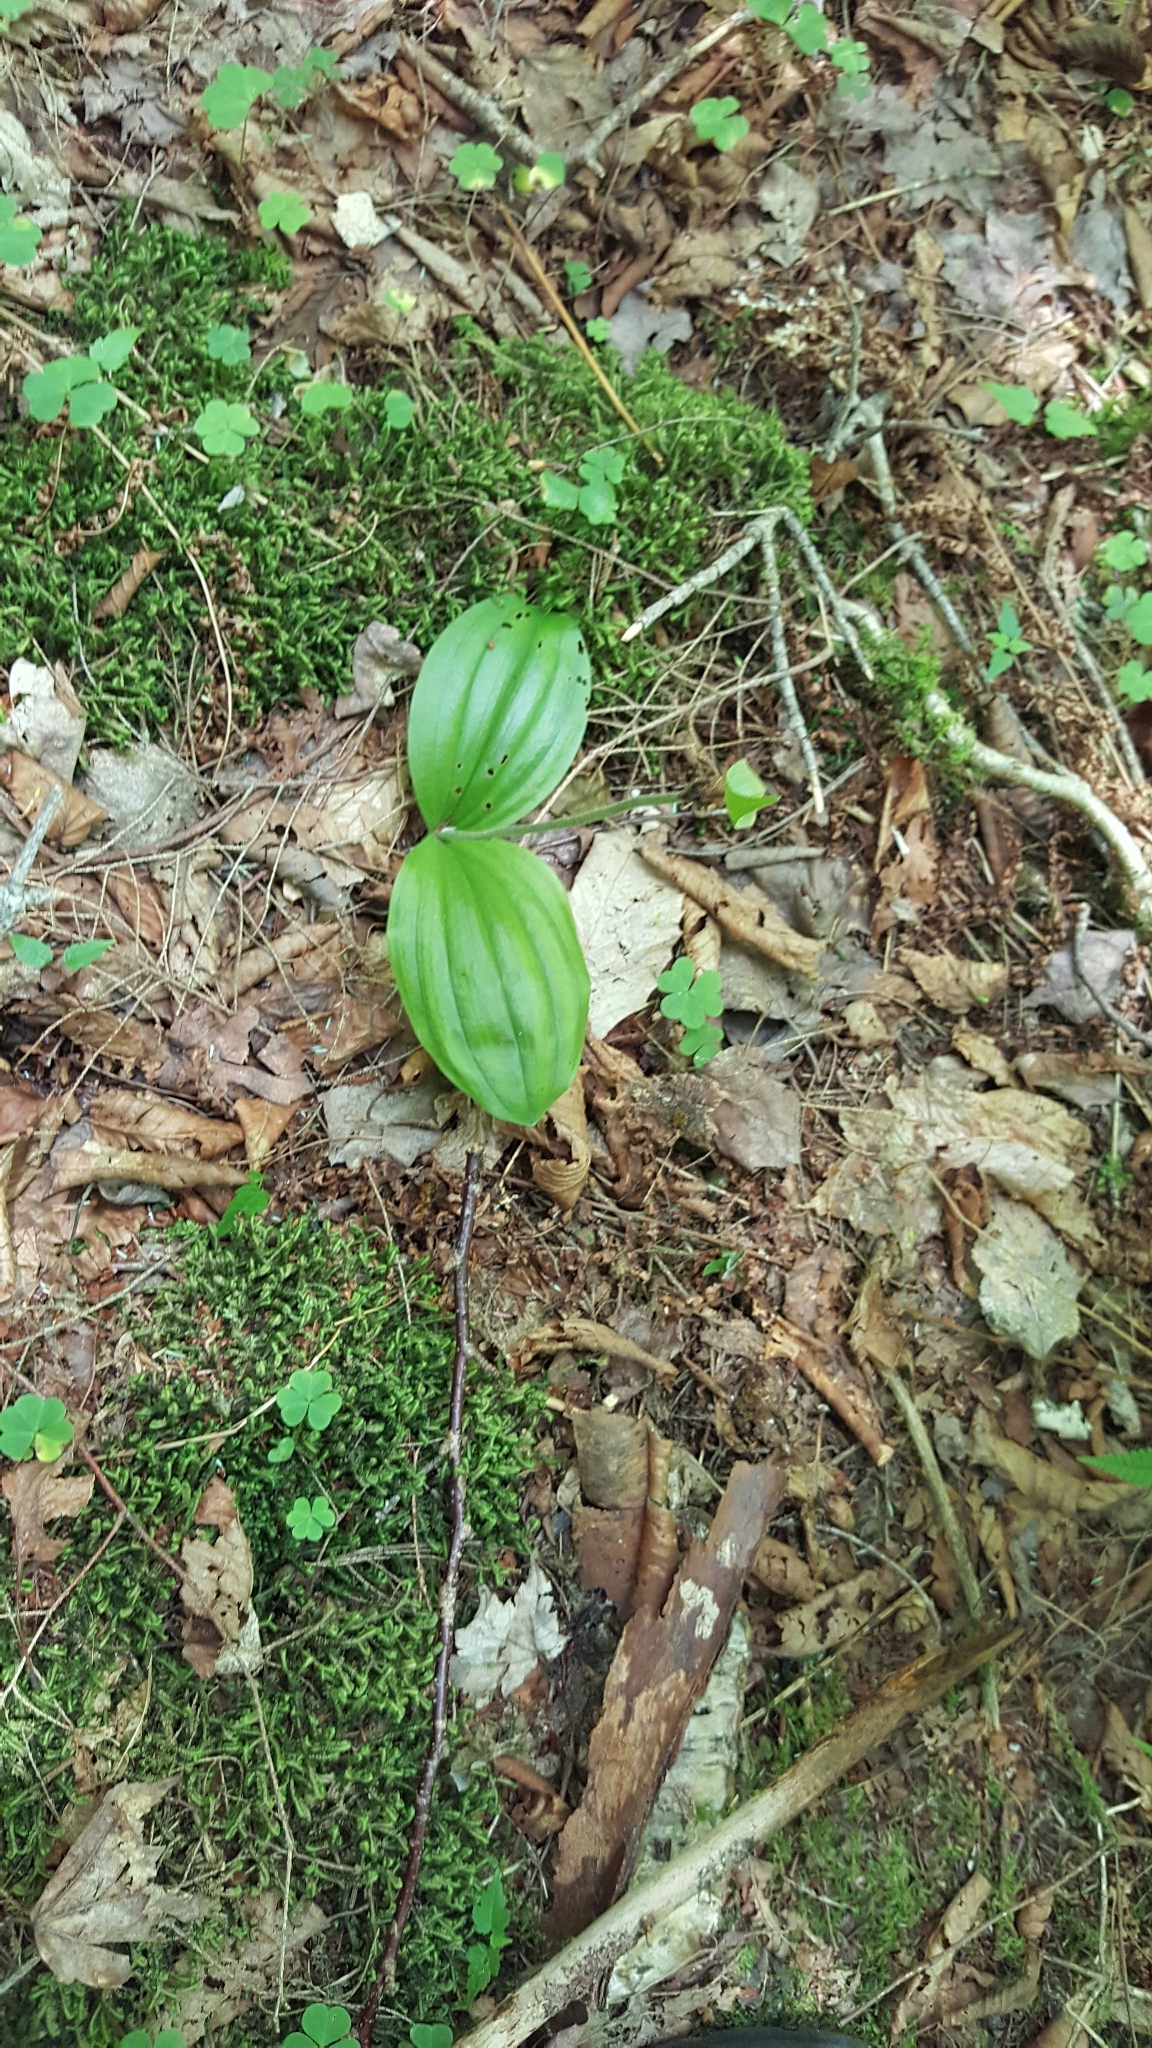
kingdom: Plantae
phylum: Tracheophyta
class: Liliopsida
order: Asparagales
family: Orchidaceae
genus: Cypripedium
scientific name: Cypripedium acaule
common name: Pink lady's-slipper
